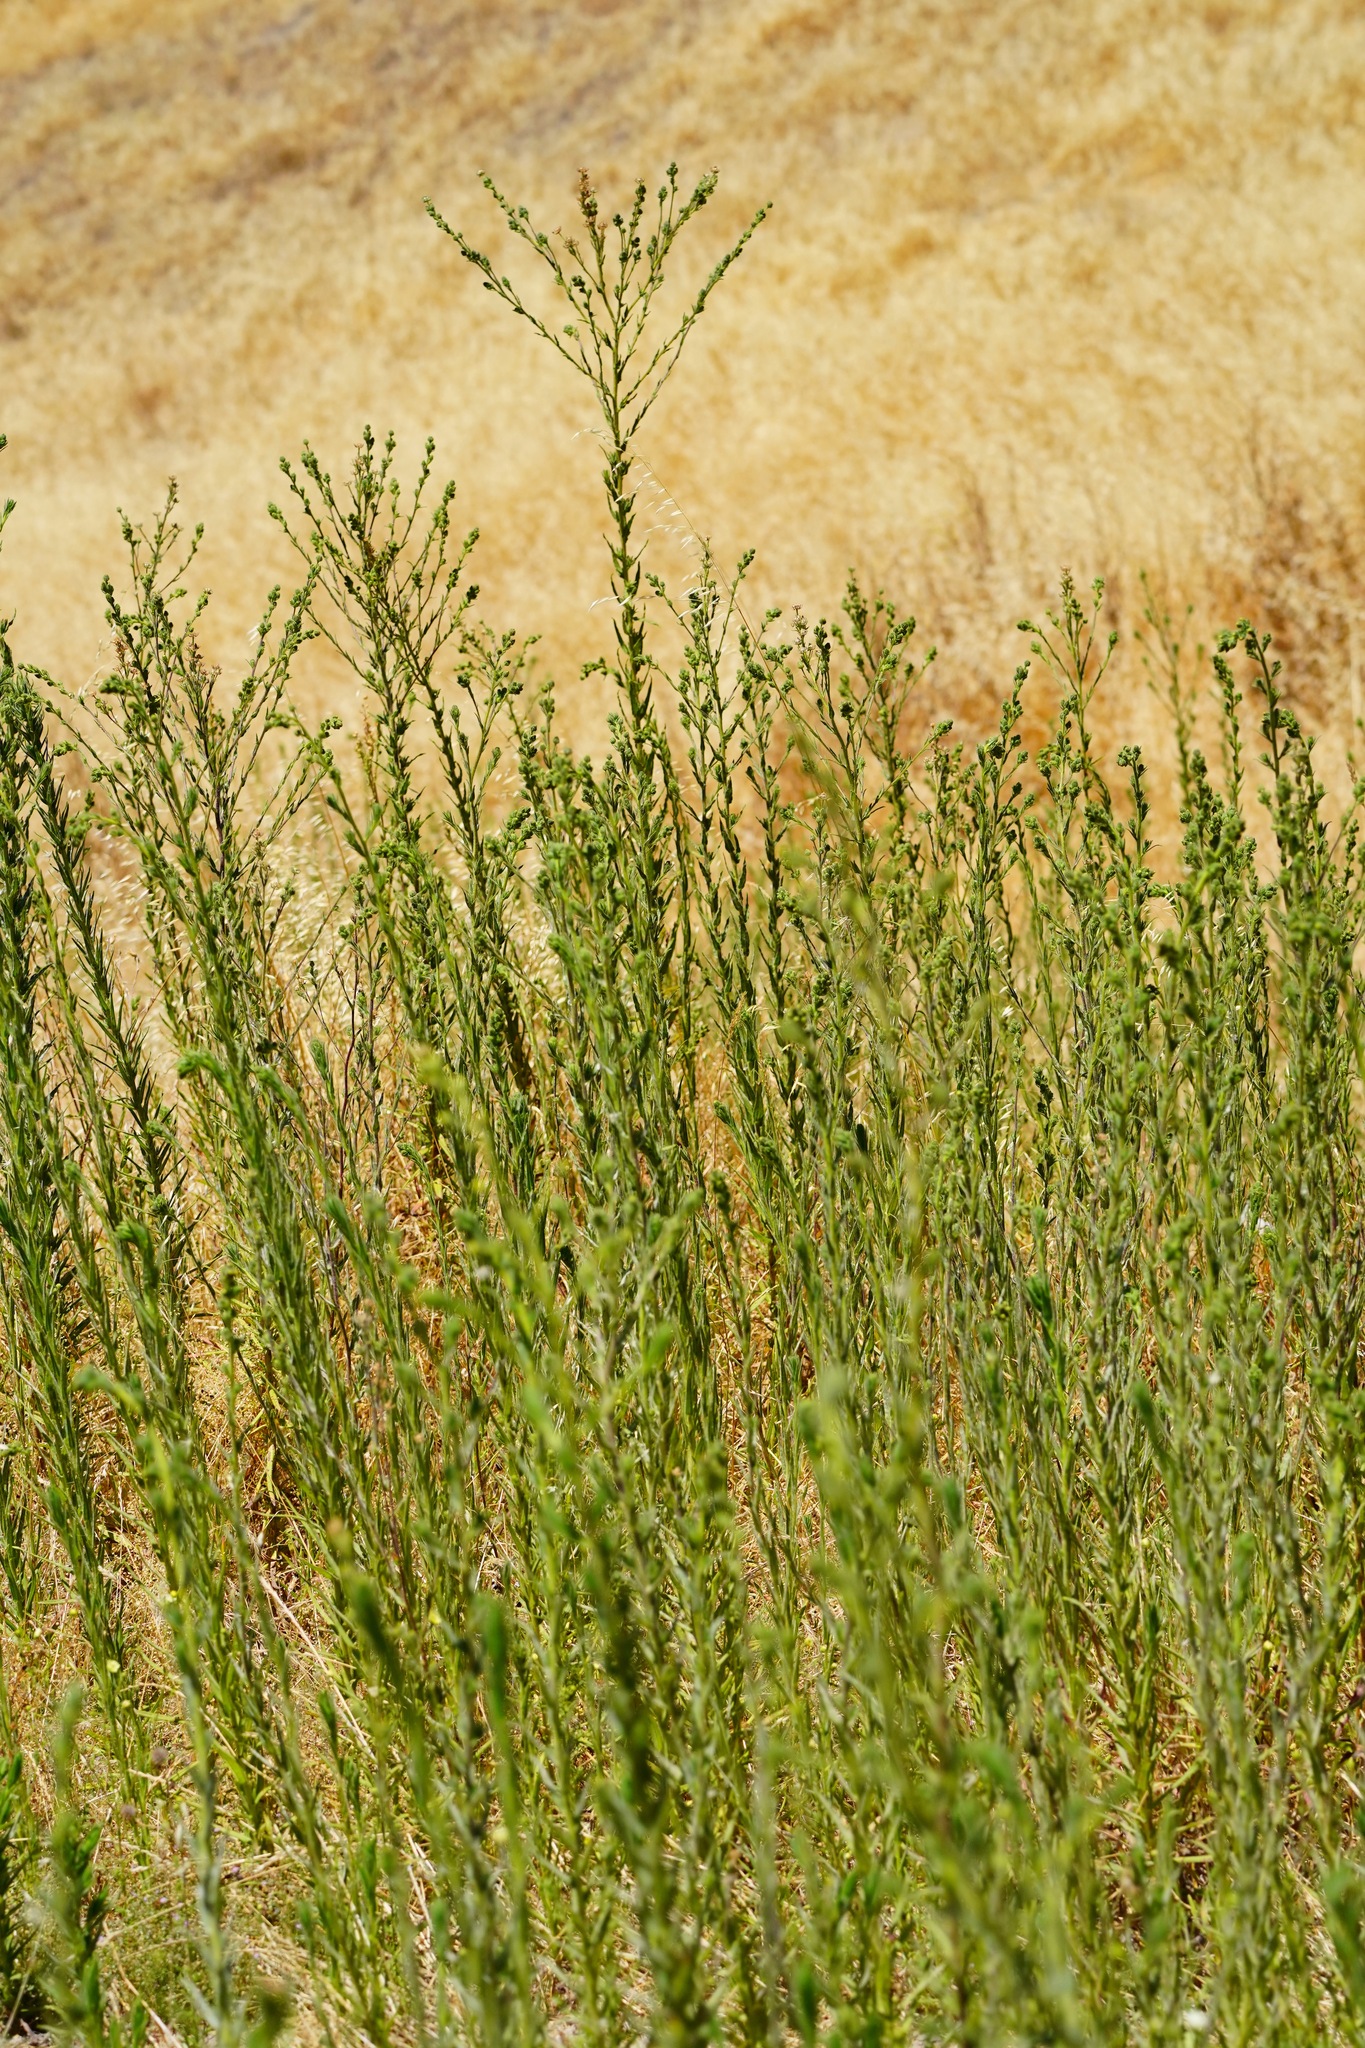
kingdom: Plantae
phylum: Tracheophyta
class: Magnoliopsida
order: Asterales
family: Asteraceae
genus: Madia
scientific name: Madia sativa
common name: Coast tarweed
